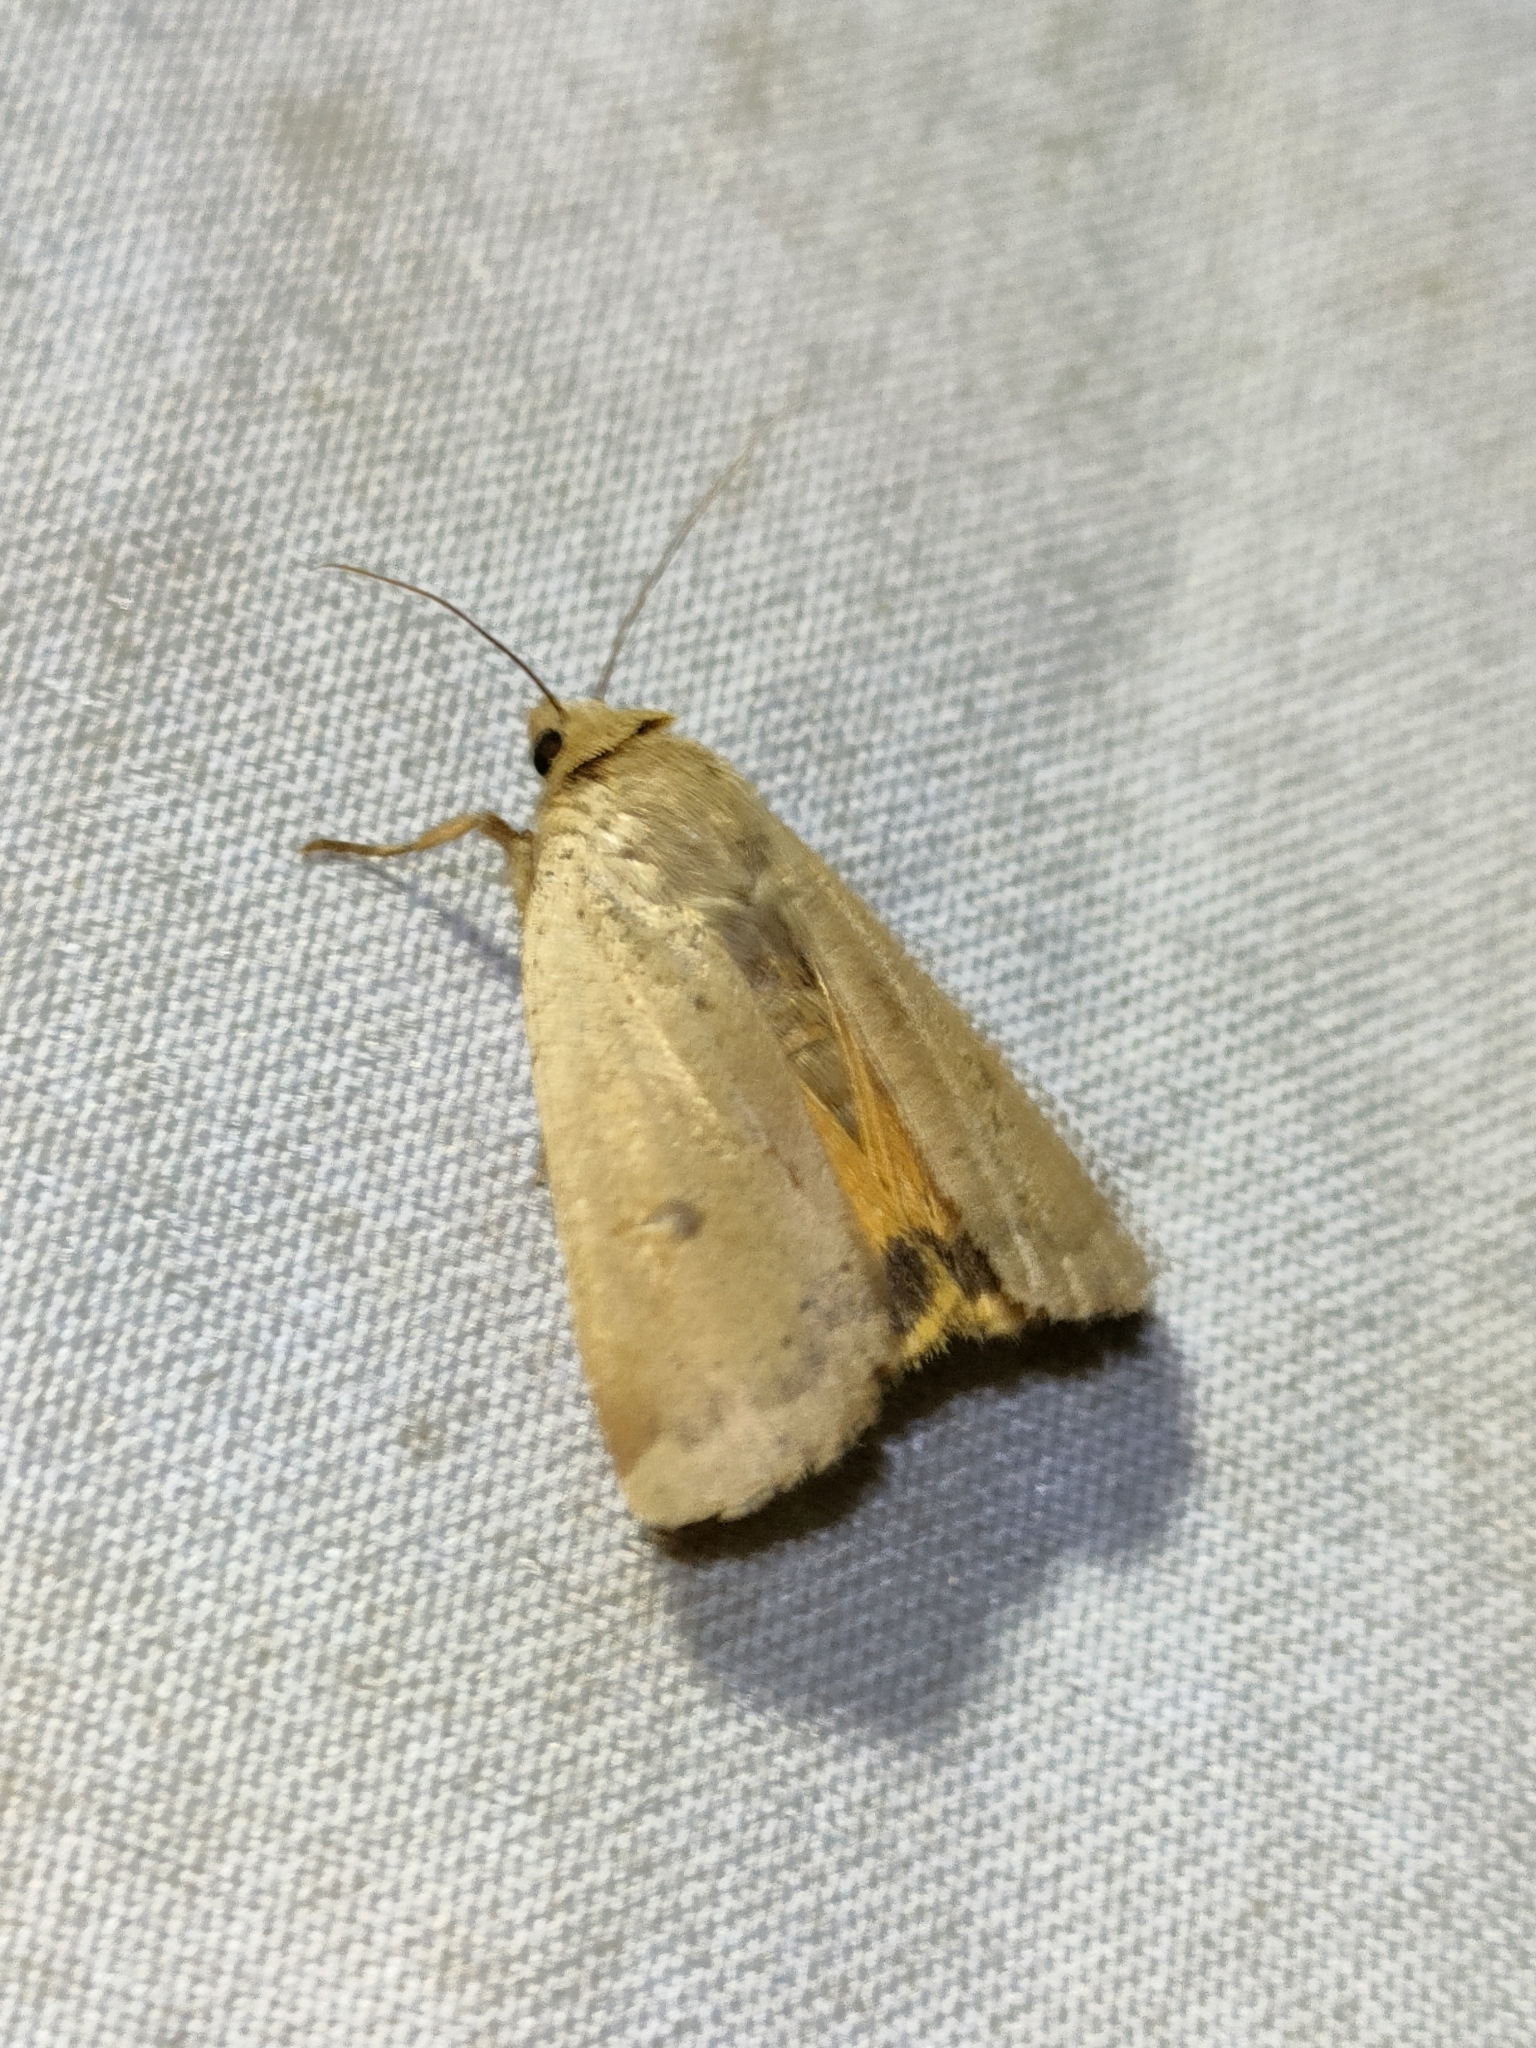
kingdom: Animalia
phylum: Arthropoda
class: Insecta
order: Lepidoptera
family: Noctuidae
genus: Noctua
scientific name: Noctua comes
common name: Lesser yellow underwing
